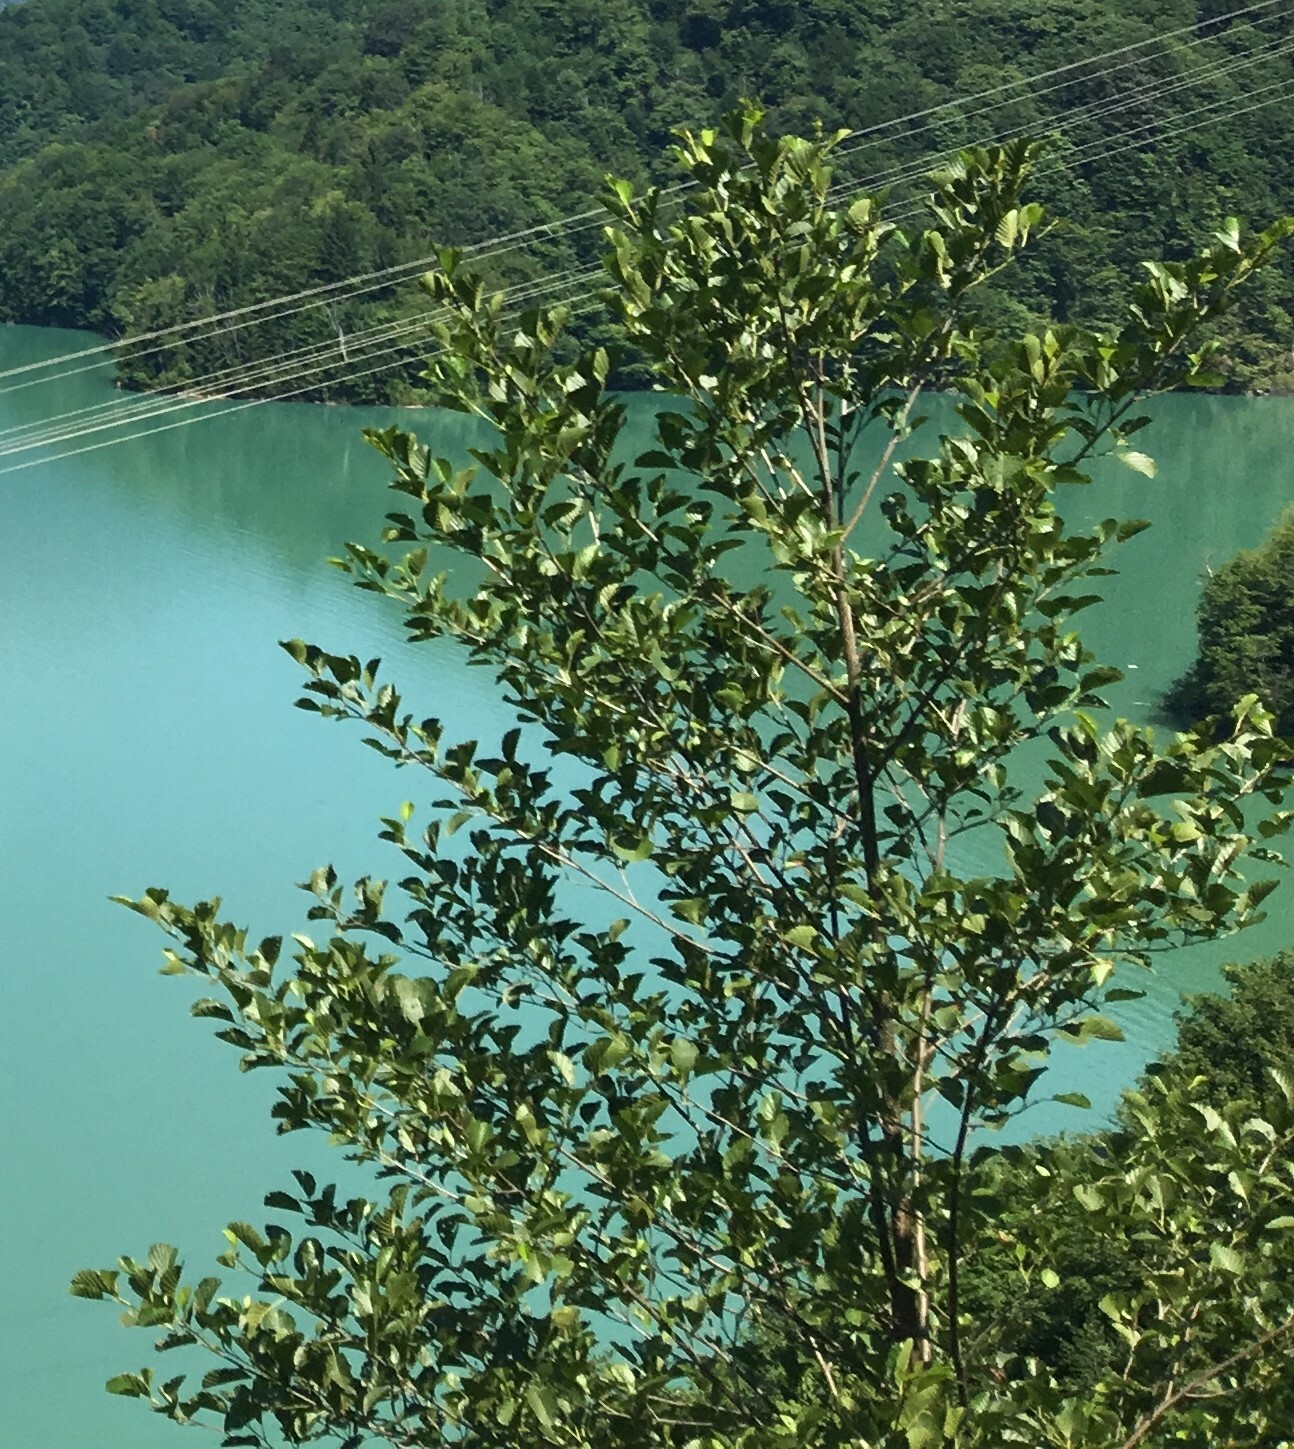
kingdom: Plantae
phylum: Tracheophyta
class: Magnoliopsida
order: Fagales
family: Betulaceae
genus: Alnus
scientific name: Alnus
